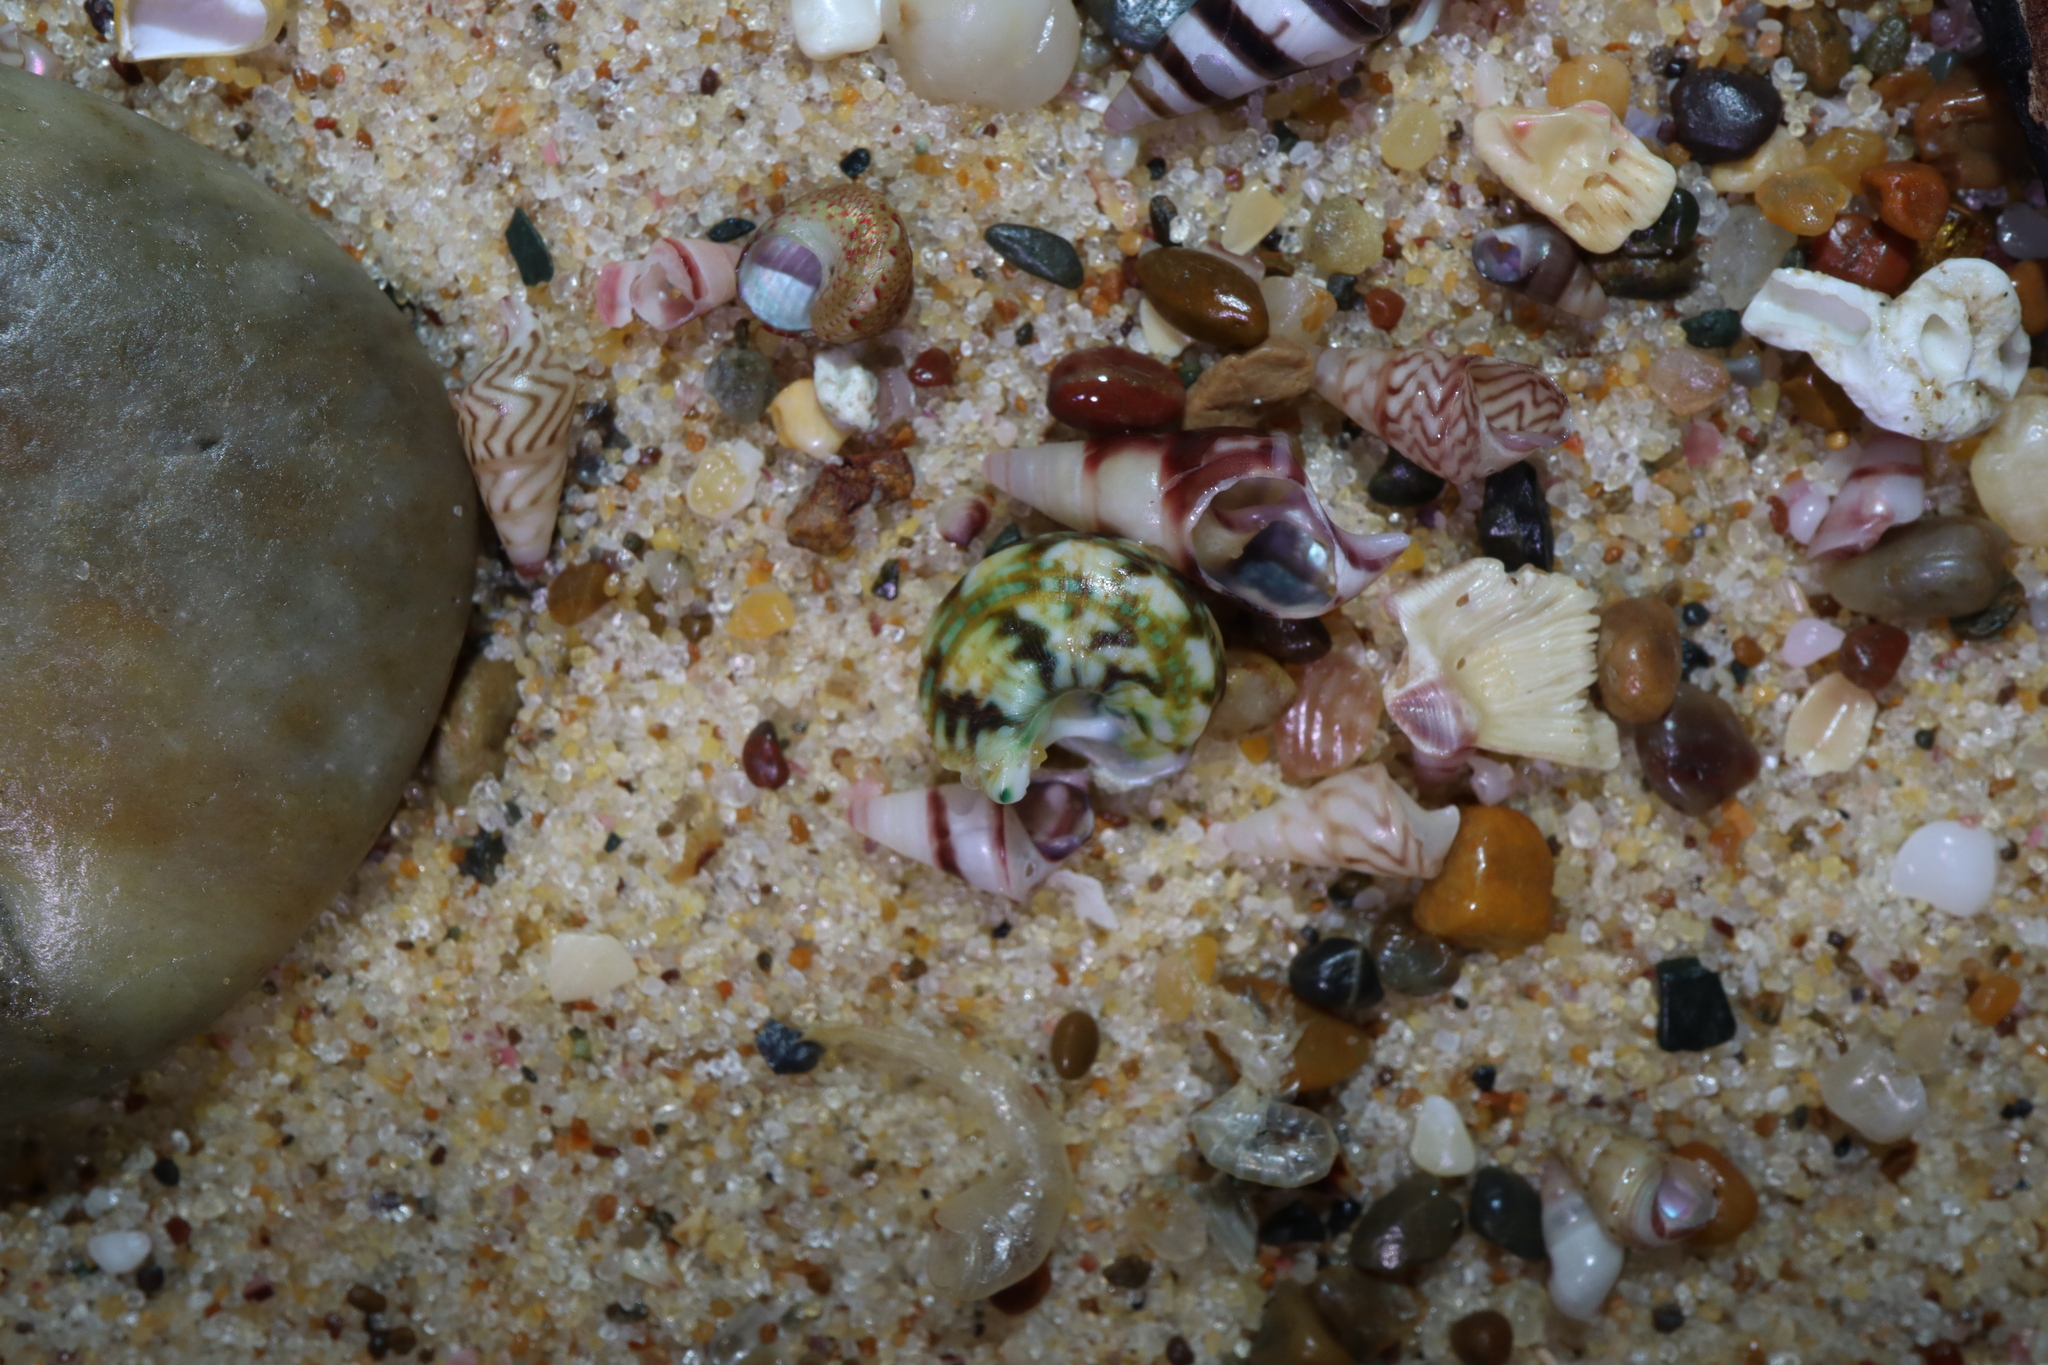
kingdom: Animalia
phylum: Mollusca
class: Gastropoda
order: Trochida
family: Turbinidae
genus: Lunella
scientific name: Lunella undulata
